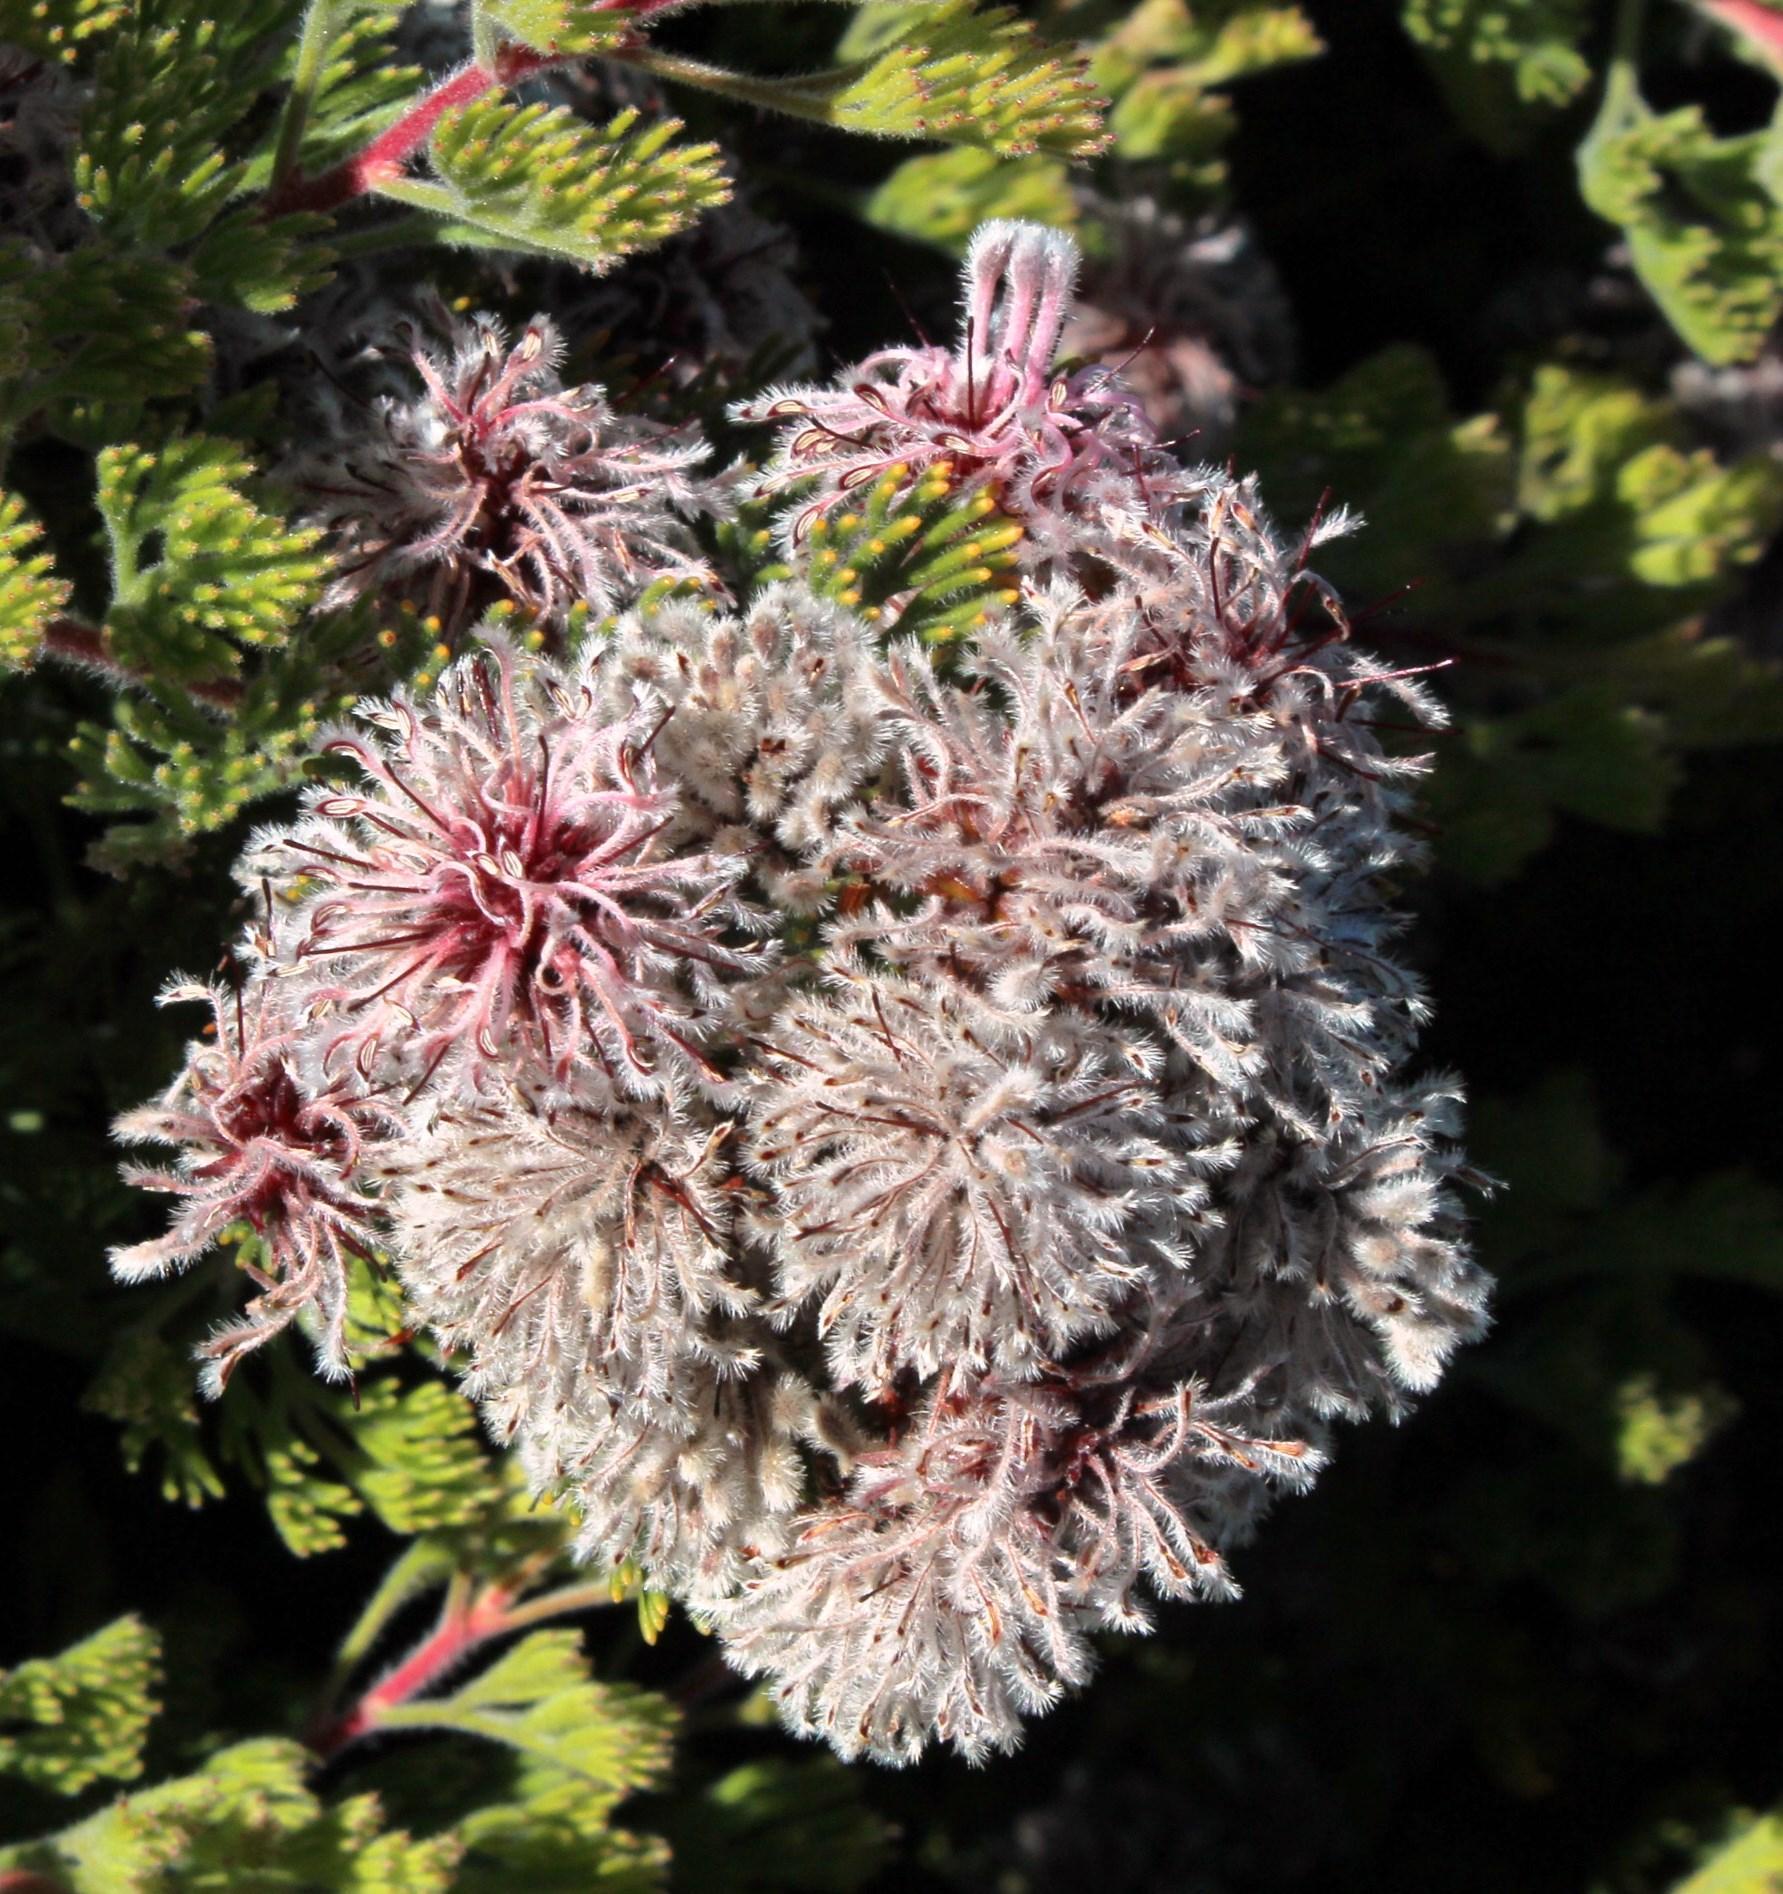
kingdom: Plantae
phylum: Tracheophyta
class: Magnoliopsida
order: Proteales
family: Proteaceae
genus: Serruria
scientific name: Serruria aitonii
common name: Marshmallow spiderhead
